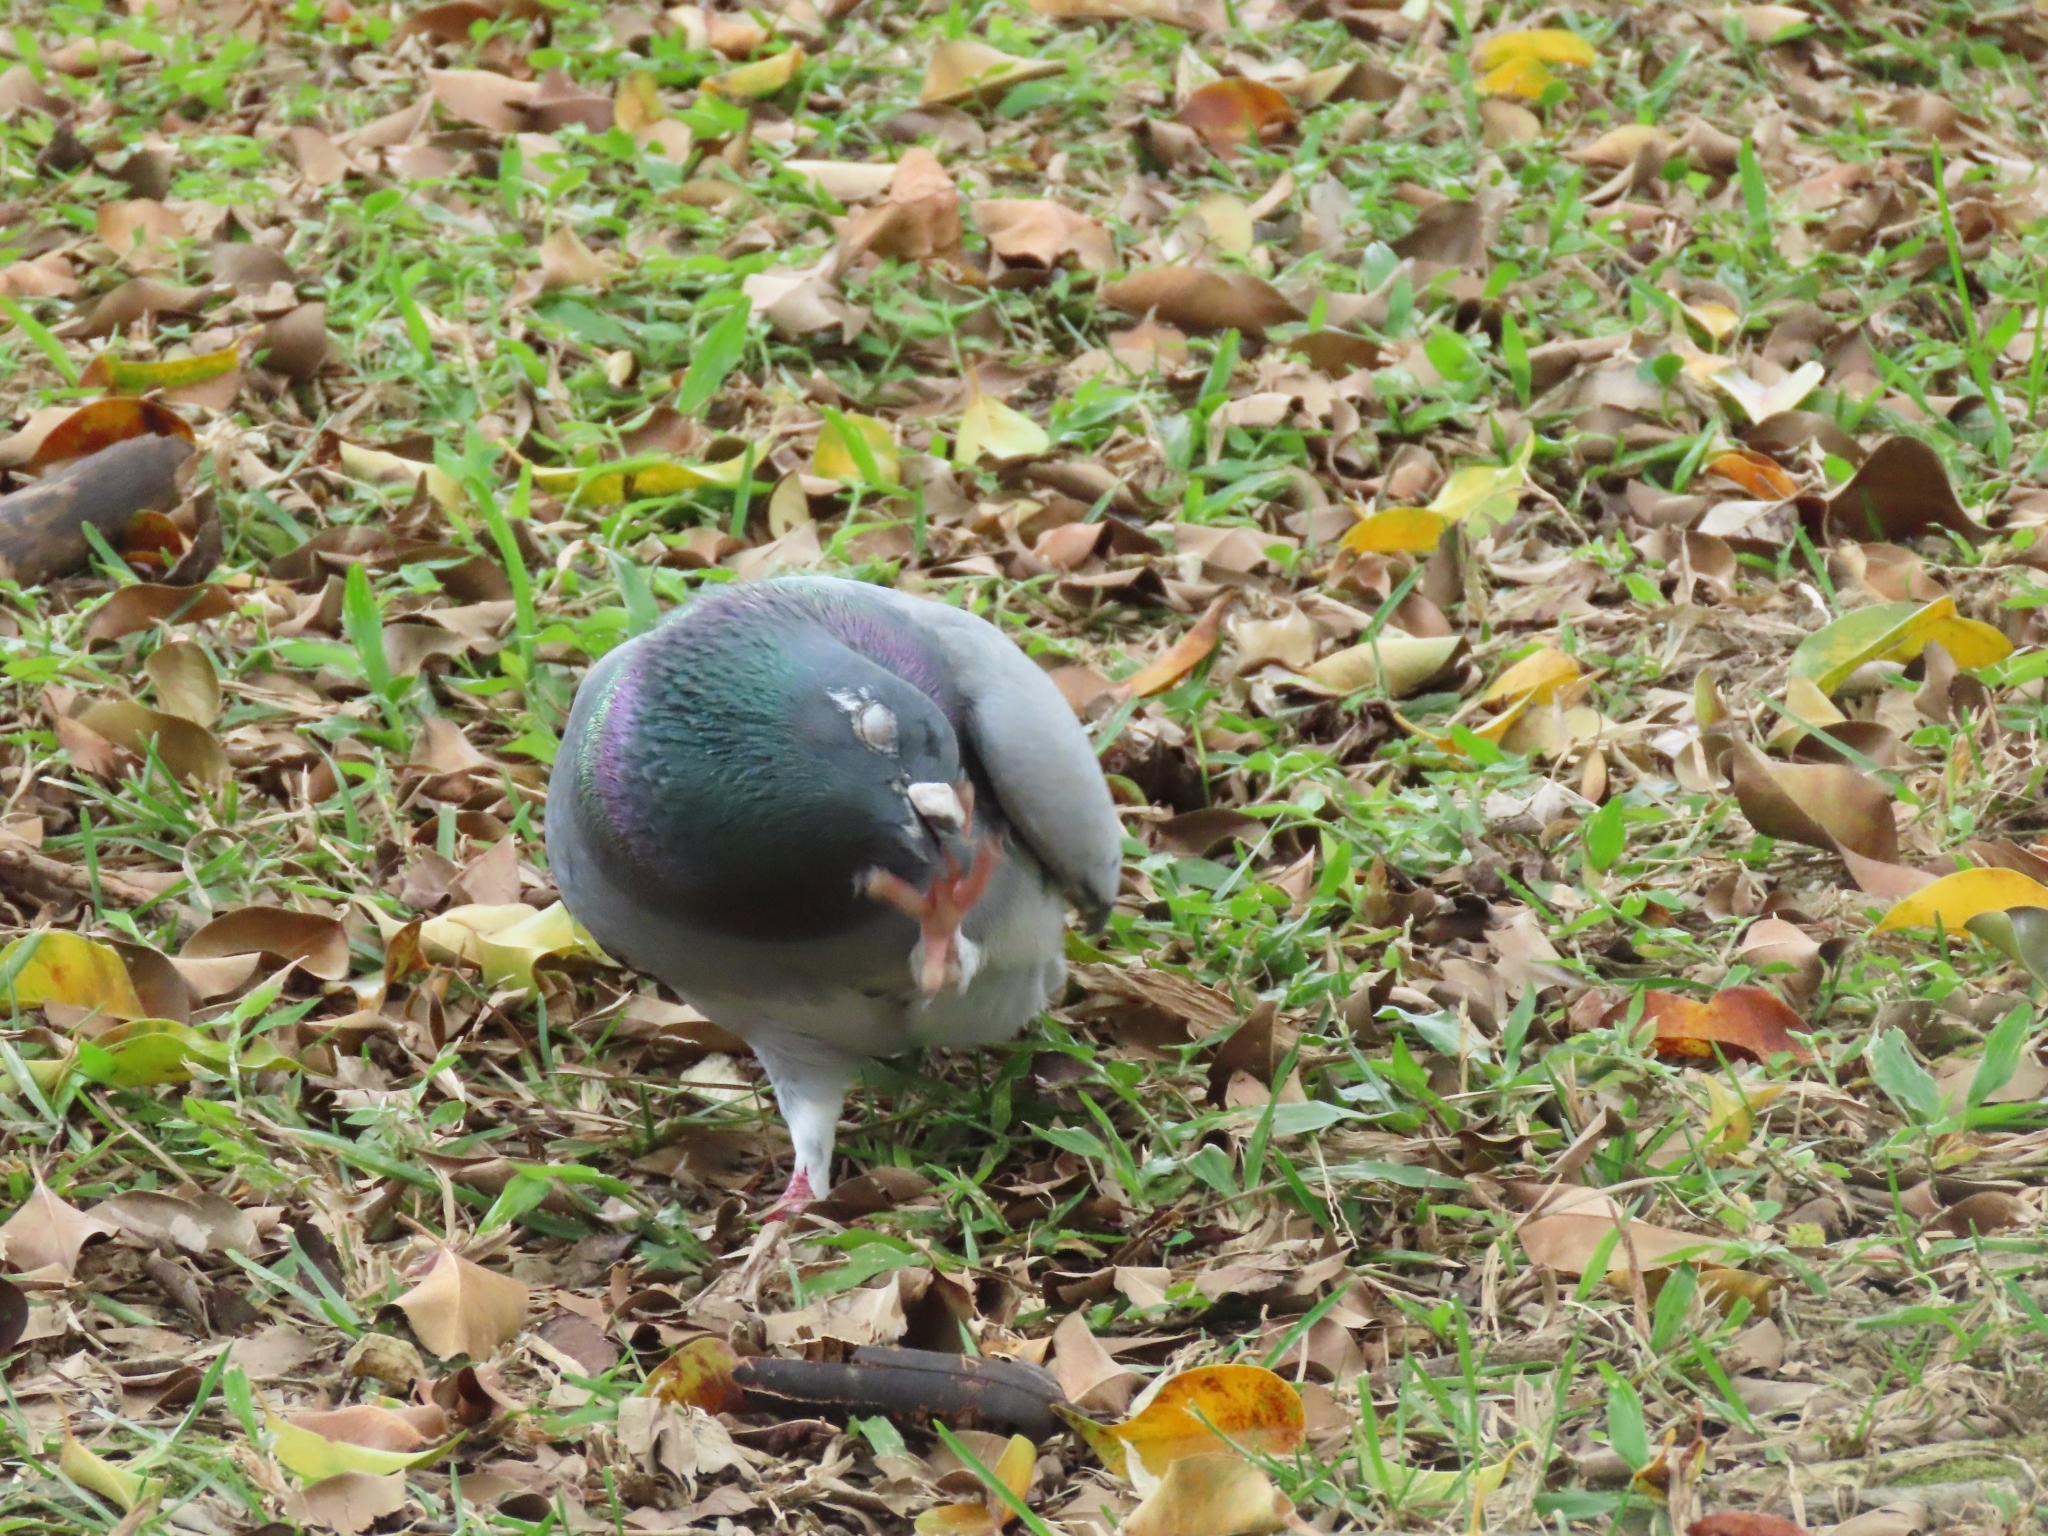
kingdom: Animalia
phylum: Chordata
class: Aves
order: Columbiformes
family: Columbidae
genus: Columba
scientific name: Columba livia
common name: Rock pigeon
